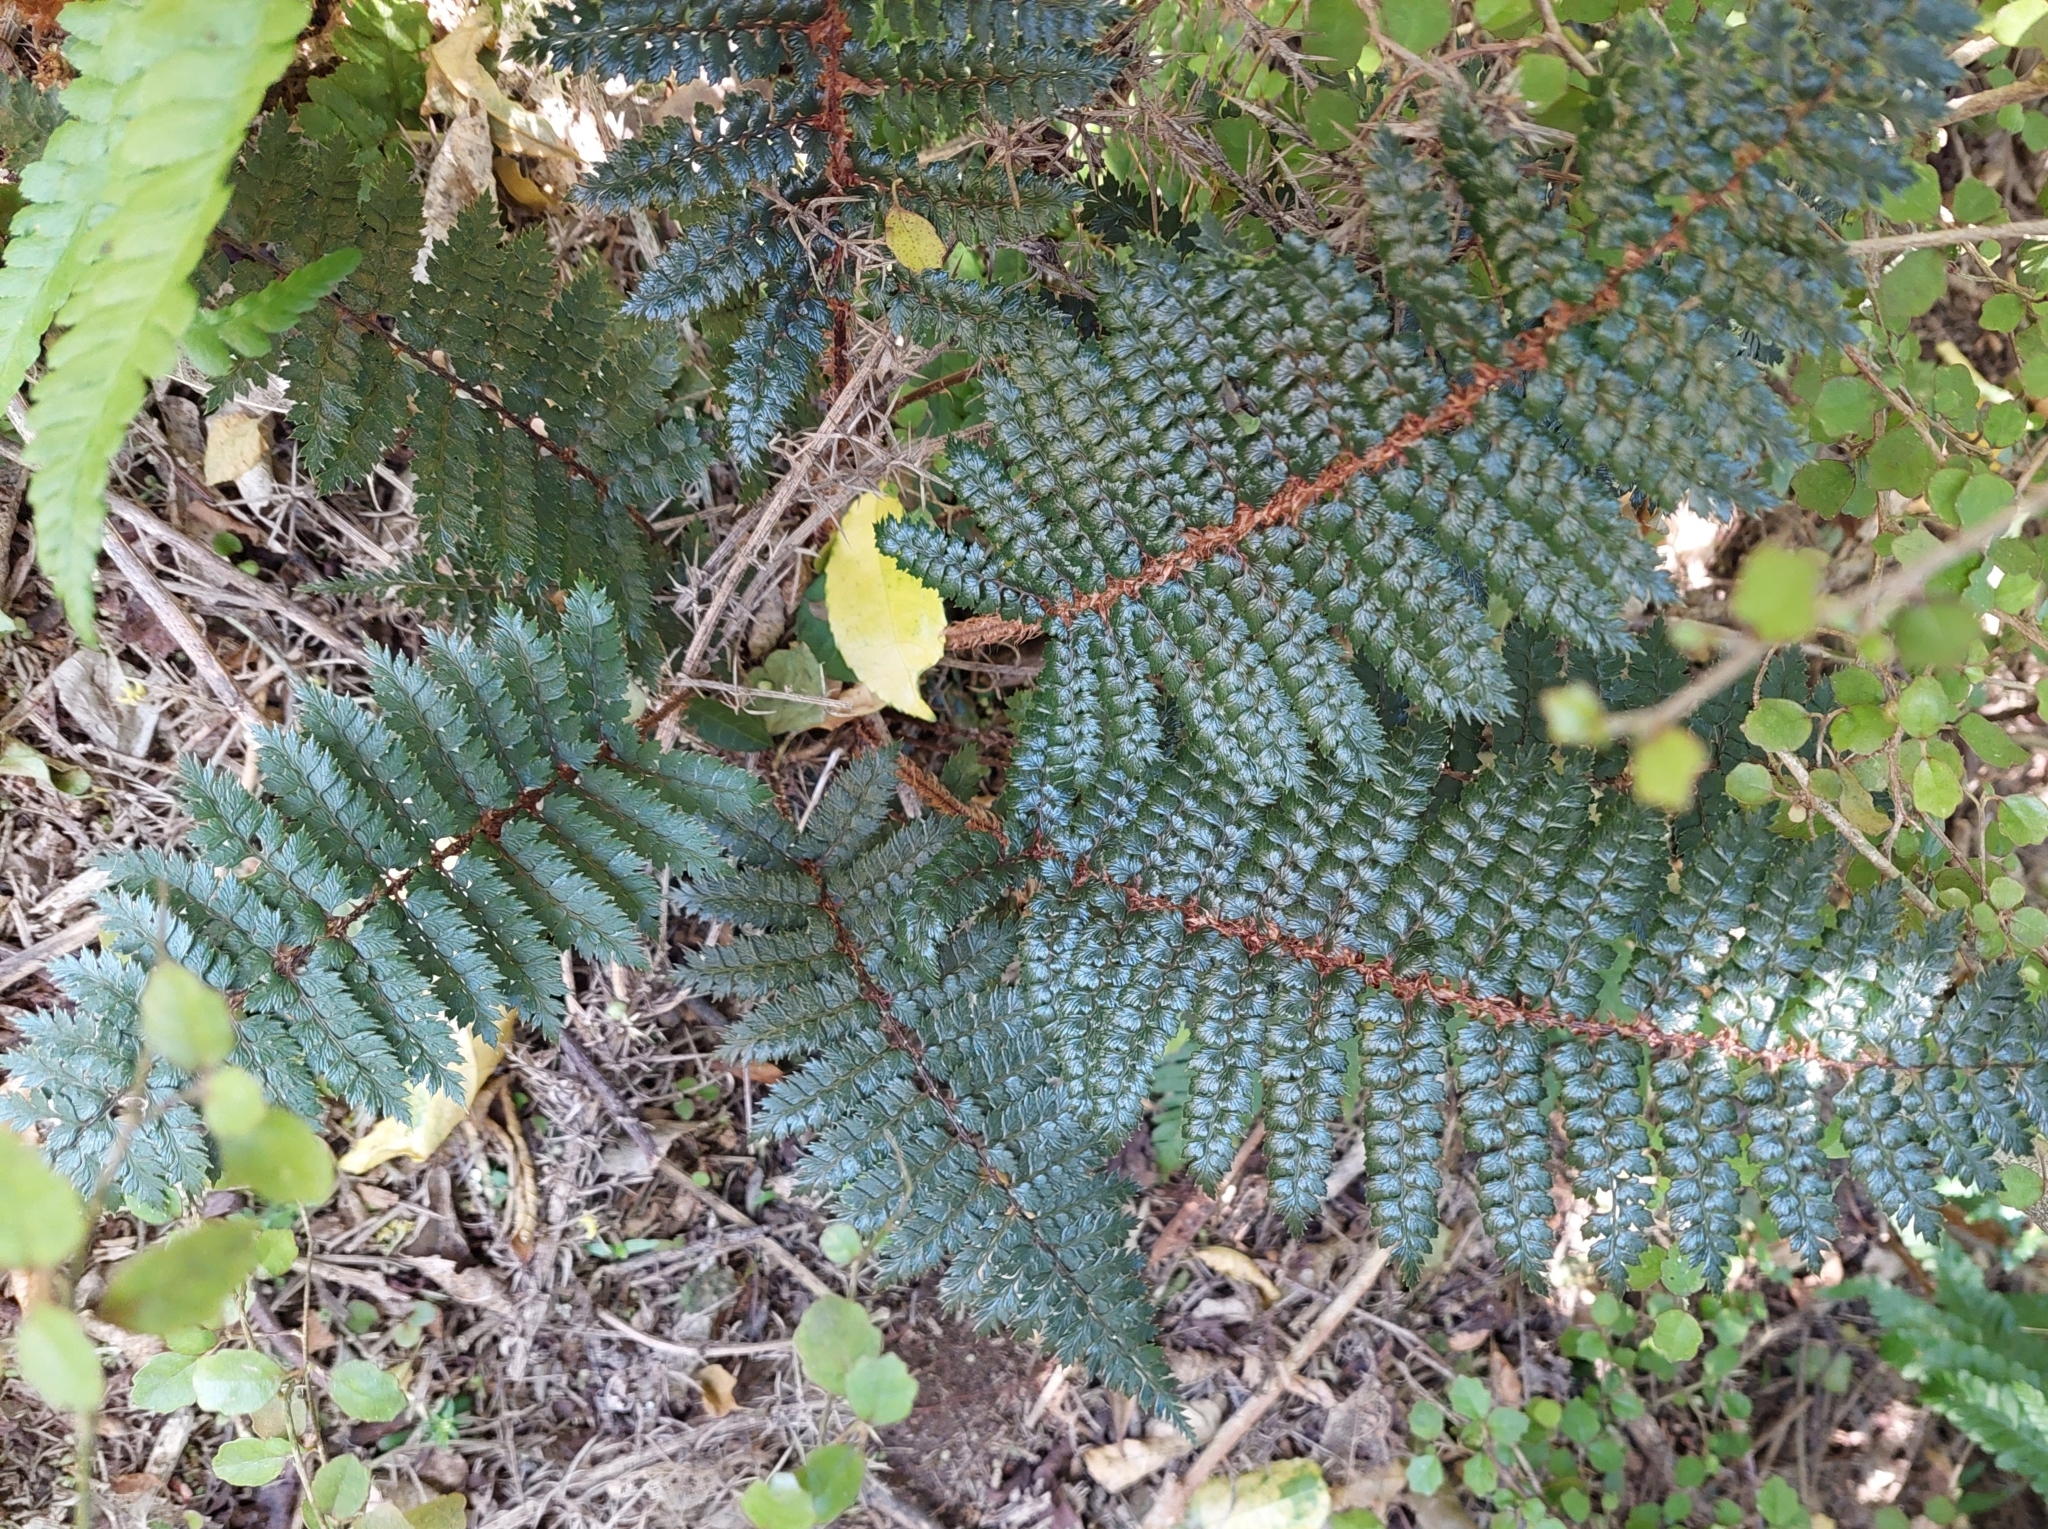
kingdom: Plantae
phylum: Tracheophyta
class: Polypodiopsida
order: Polypodiales
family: Dryopteridaceae
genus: Polystichum
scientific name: Polystichum vestitum
